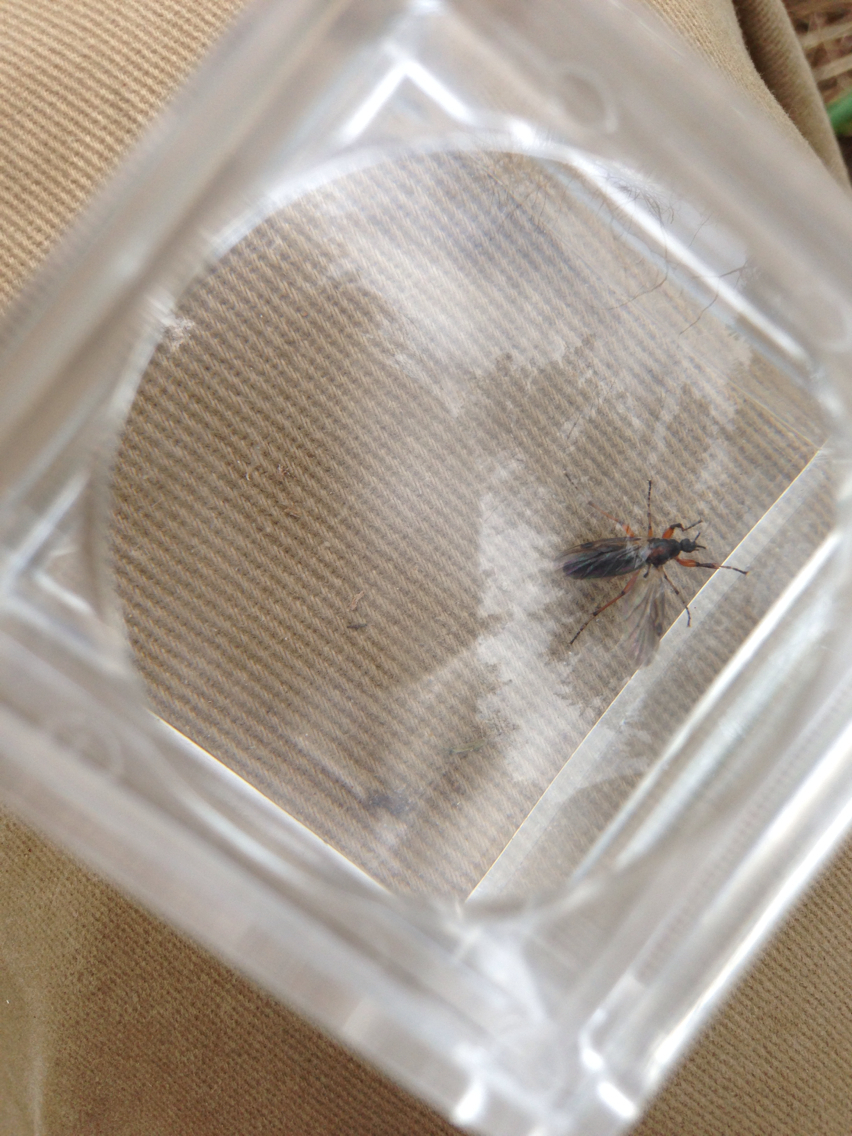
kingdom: Animalia
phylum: Arthropoda
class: Insecta
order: Diptera
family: Bibionidae
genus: Bibio
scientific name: Bibio
